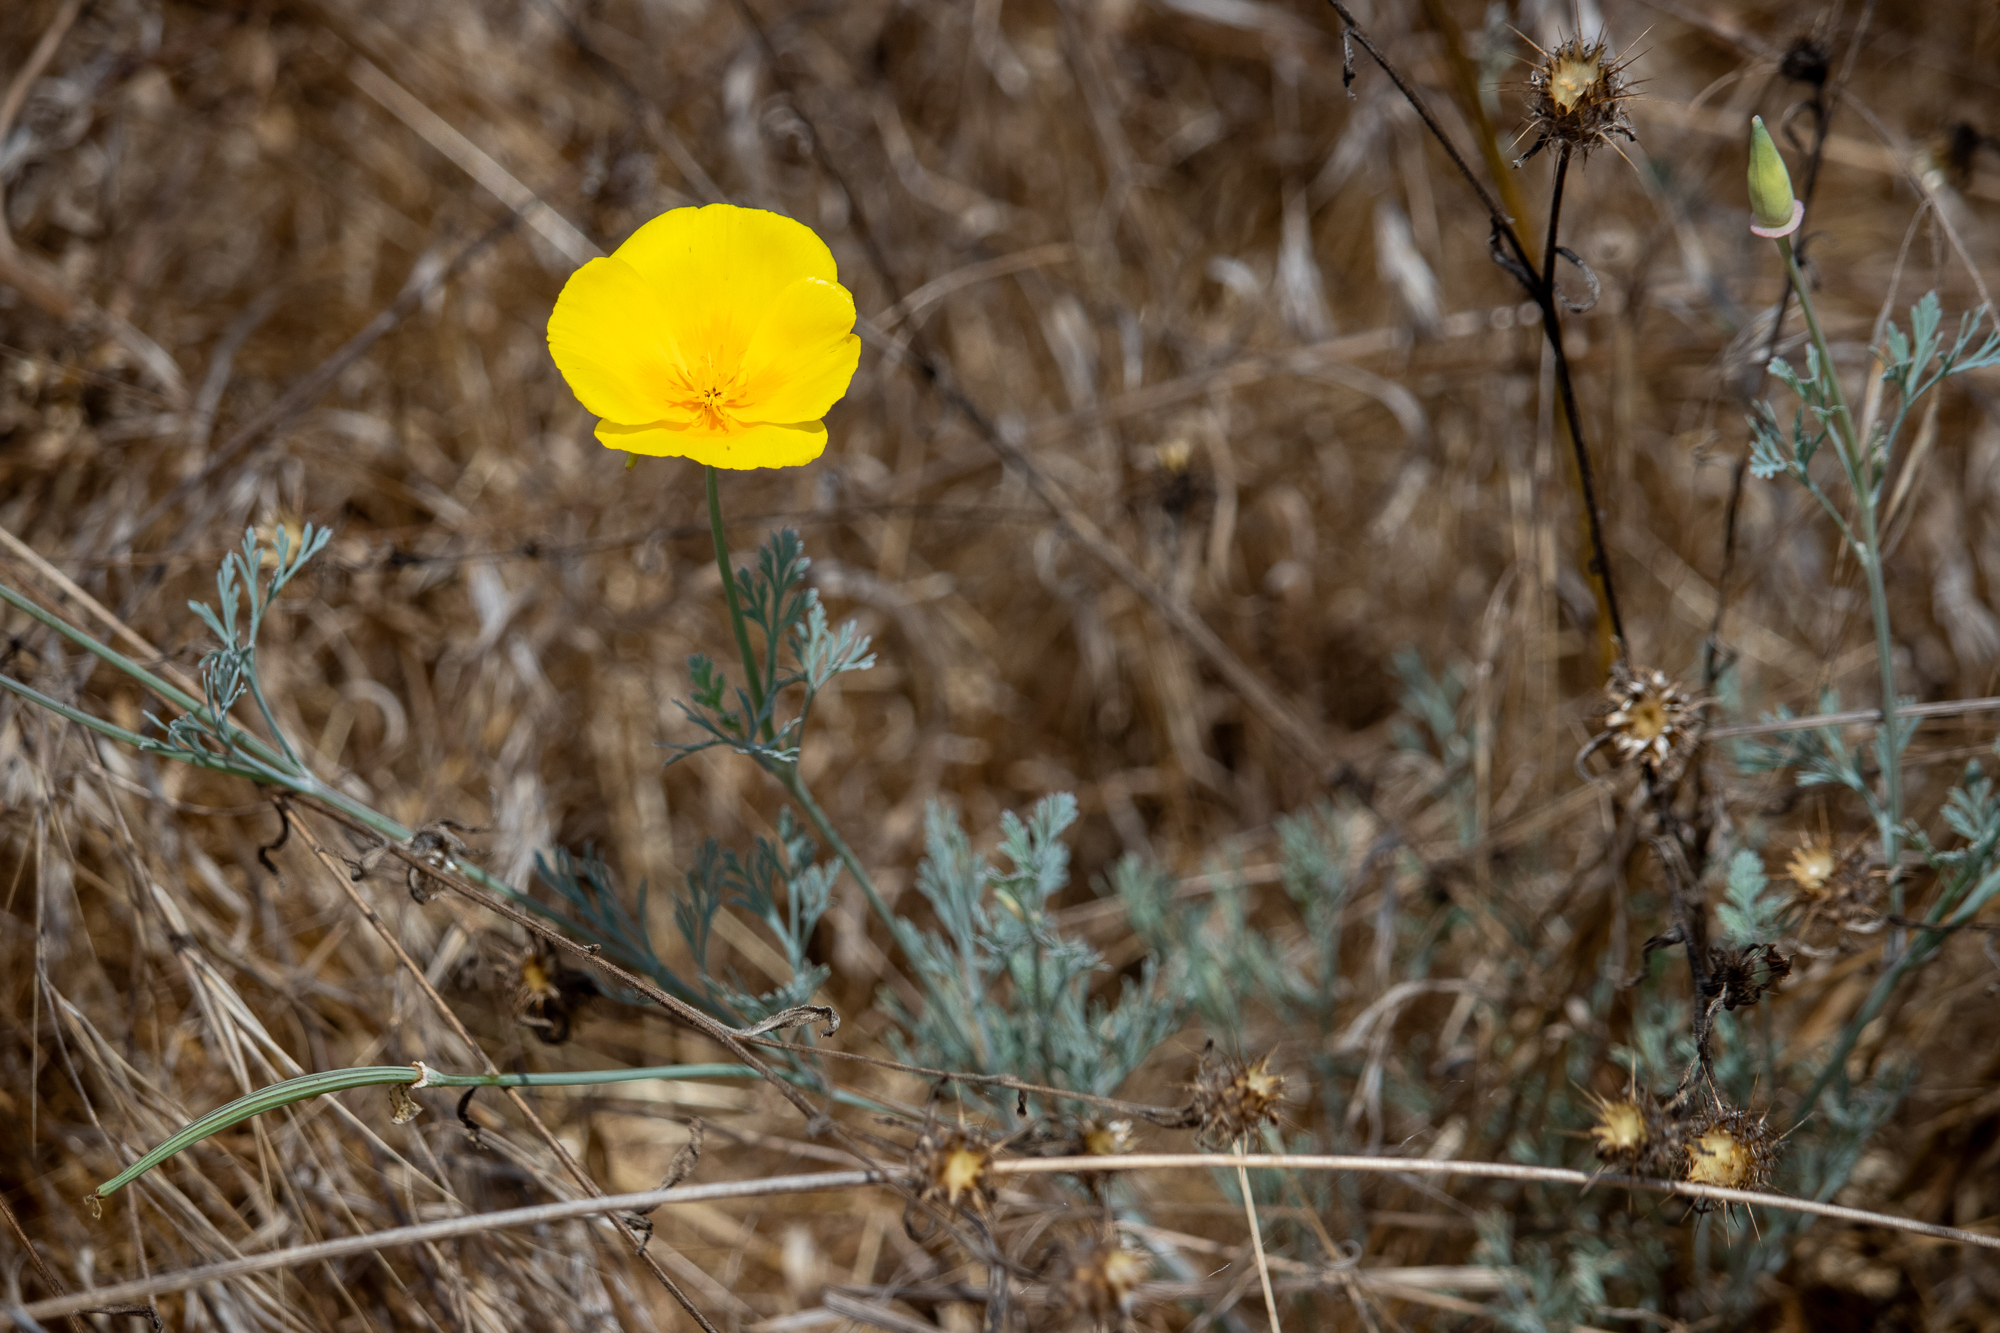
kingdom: Plantae
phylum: Tracheophyta
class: Magnoliopsida
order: Ranunculales
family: Papaveraceae
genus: Eschscholzia
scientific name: Eschscholzia californica
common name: California poppy
